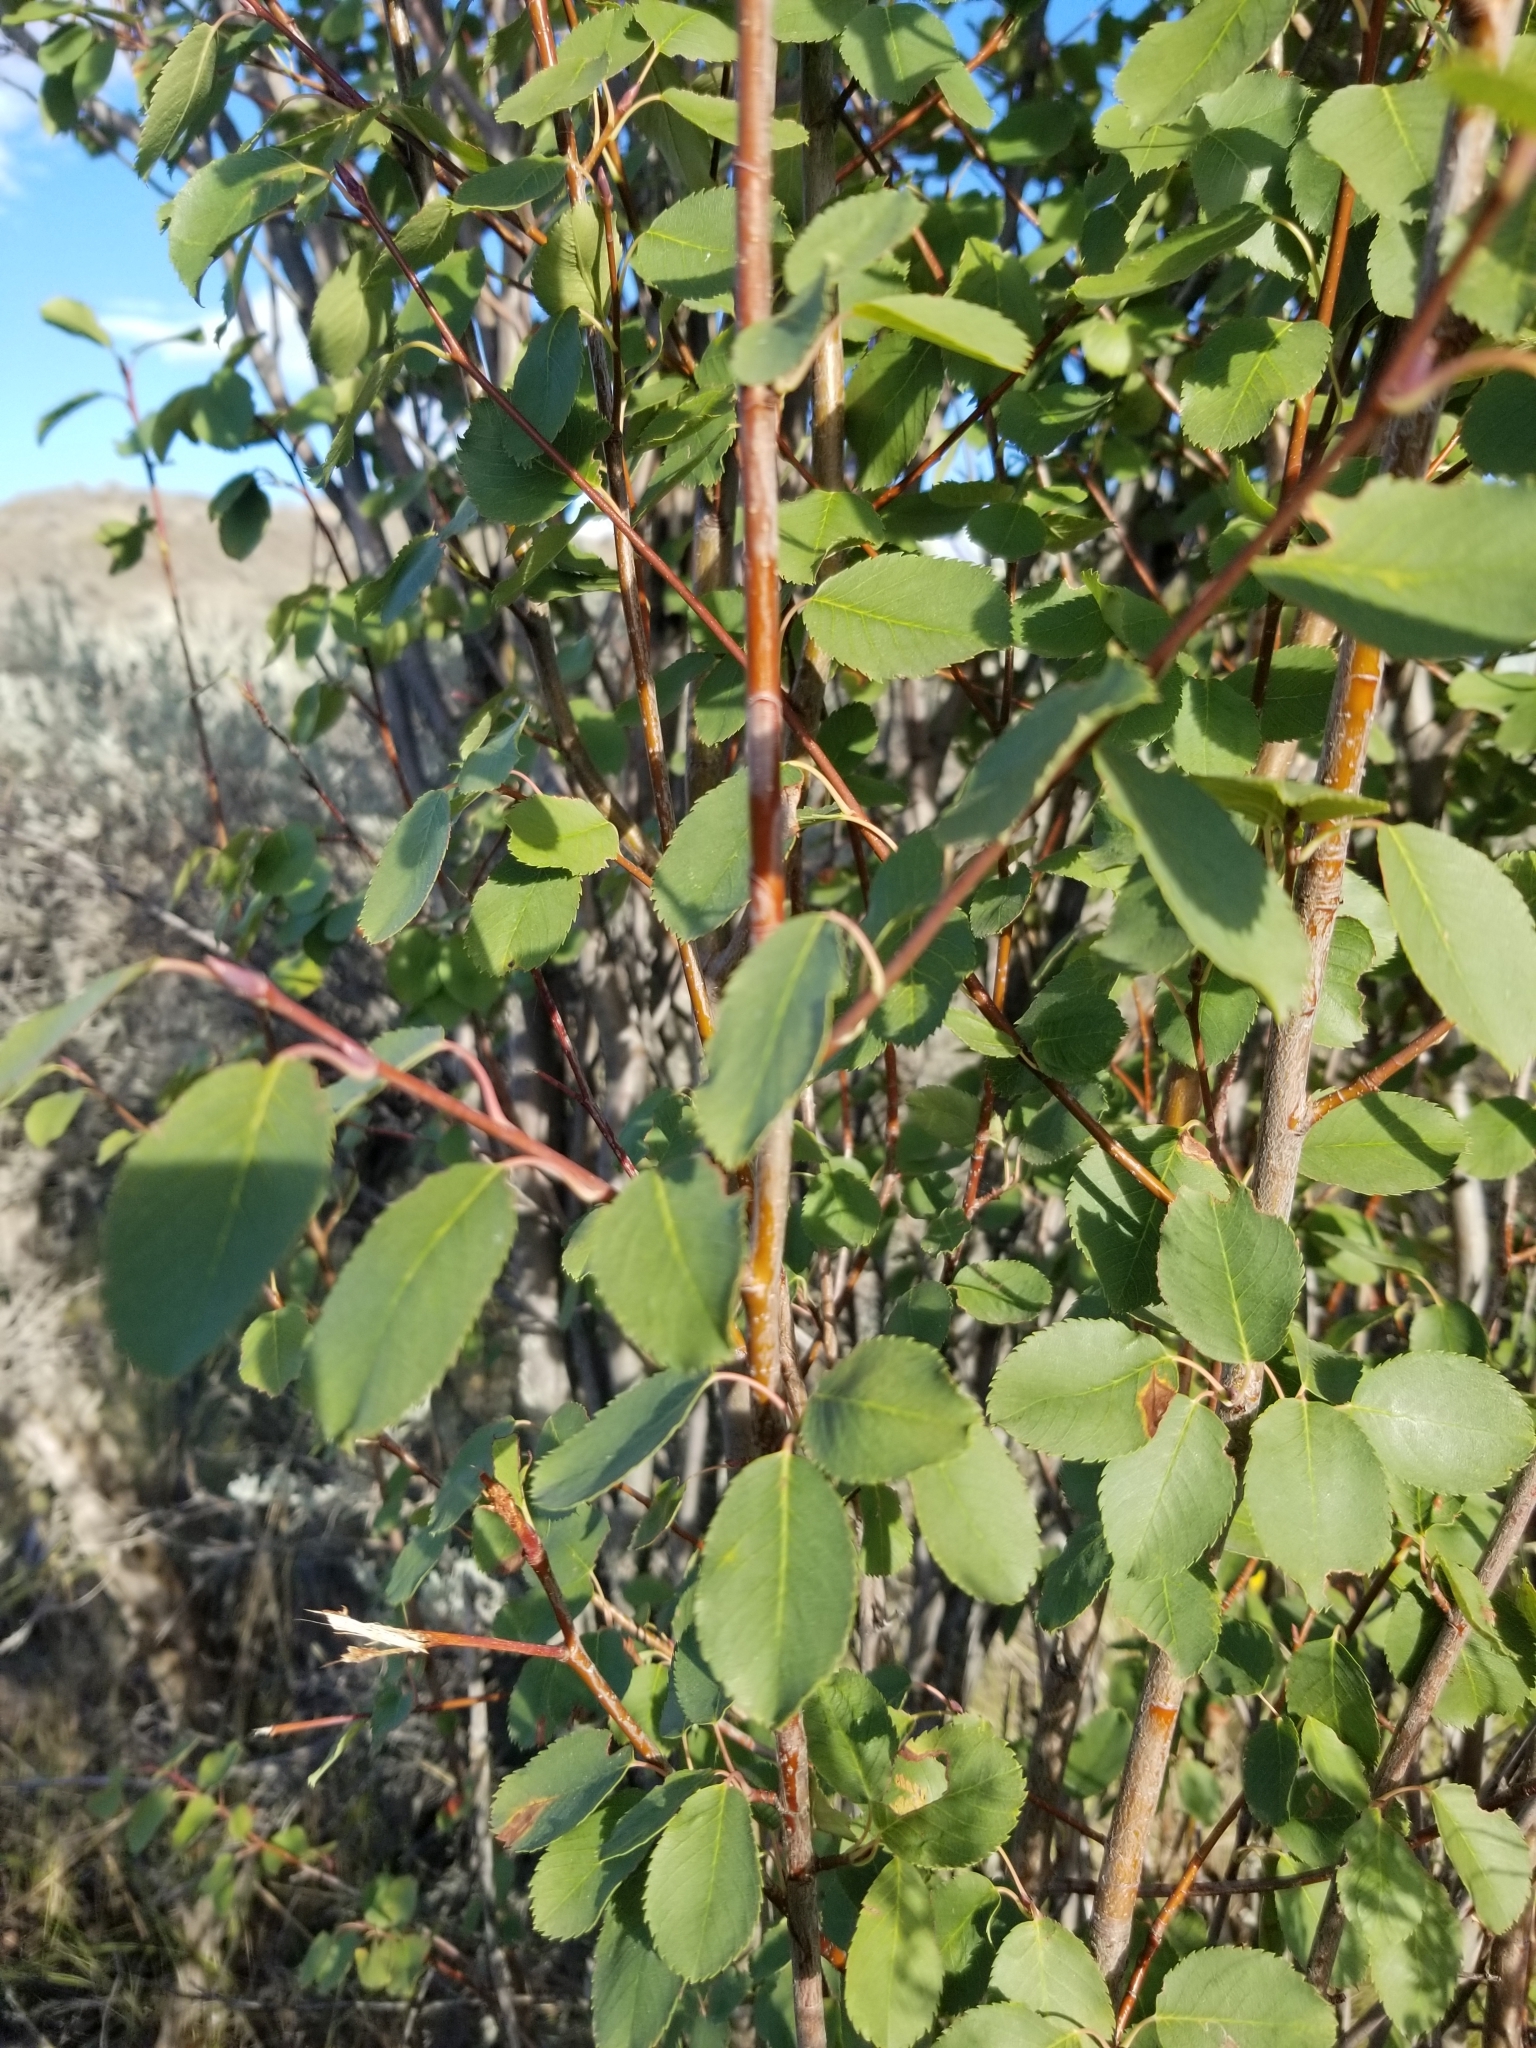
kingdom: Plantae
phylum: Tracheophyta
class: Magnoliopsida
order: Rosales
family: Rosaceae
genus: Amelanchier
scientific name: Amelanchier alnifolia
